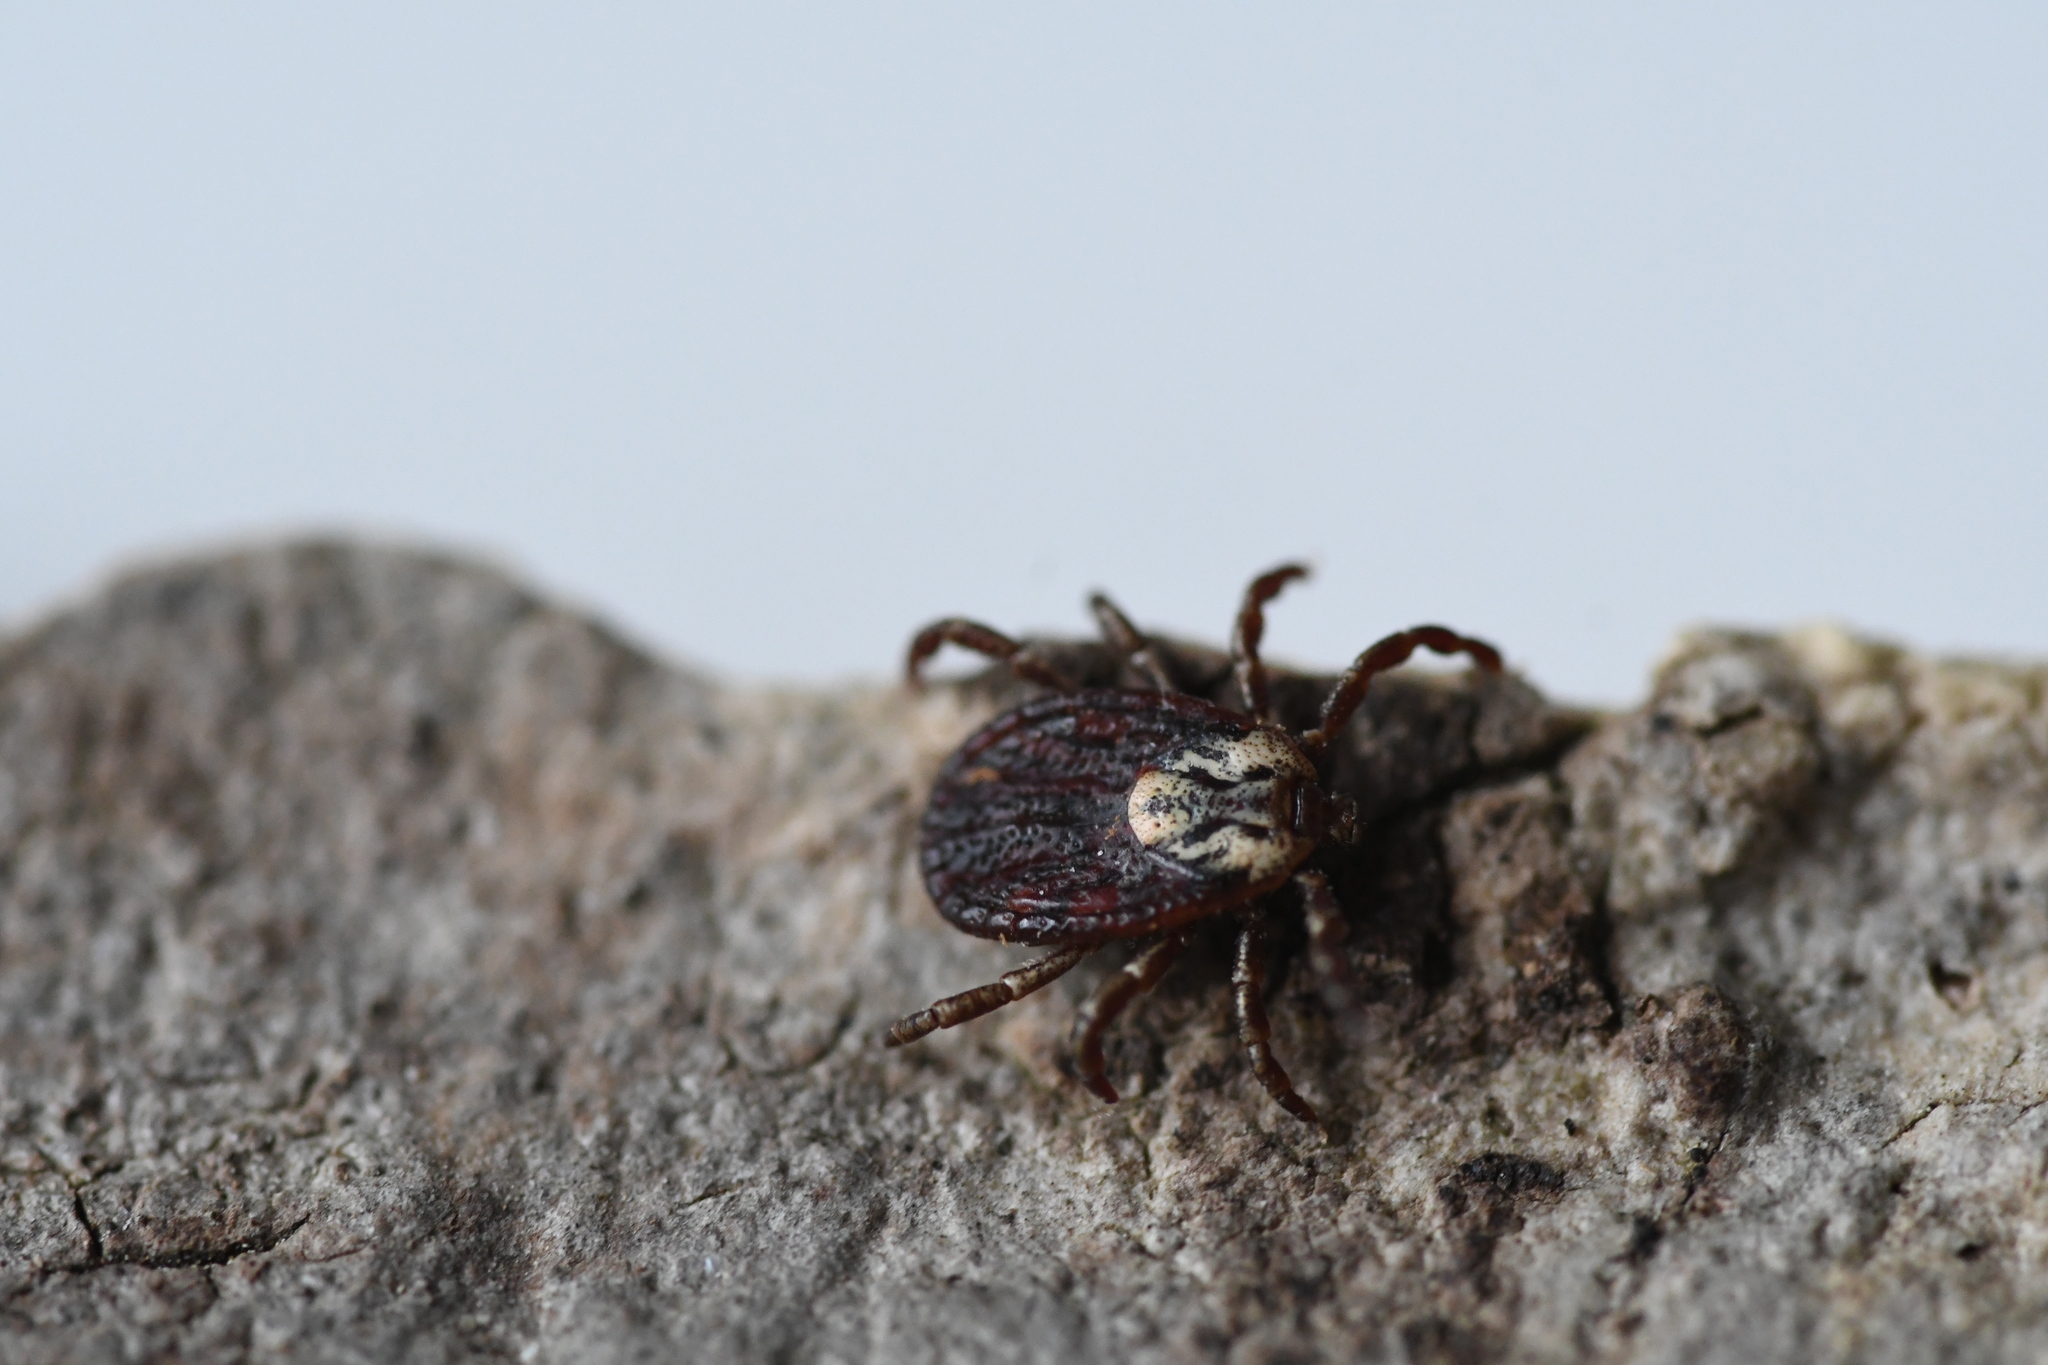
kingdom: Animalia
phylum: Arthropoda
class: Arachnida
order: Ixodida
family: Ixodidae
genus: Dermacentor
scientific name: Dermacentor marginatus
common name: Ornate sheep tick
